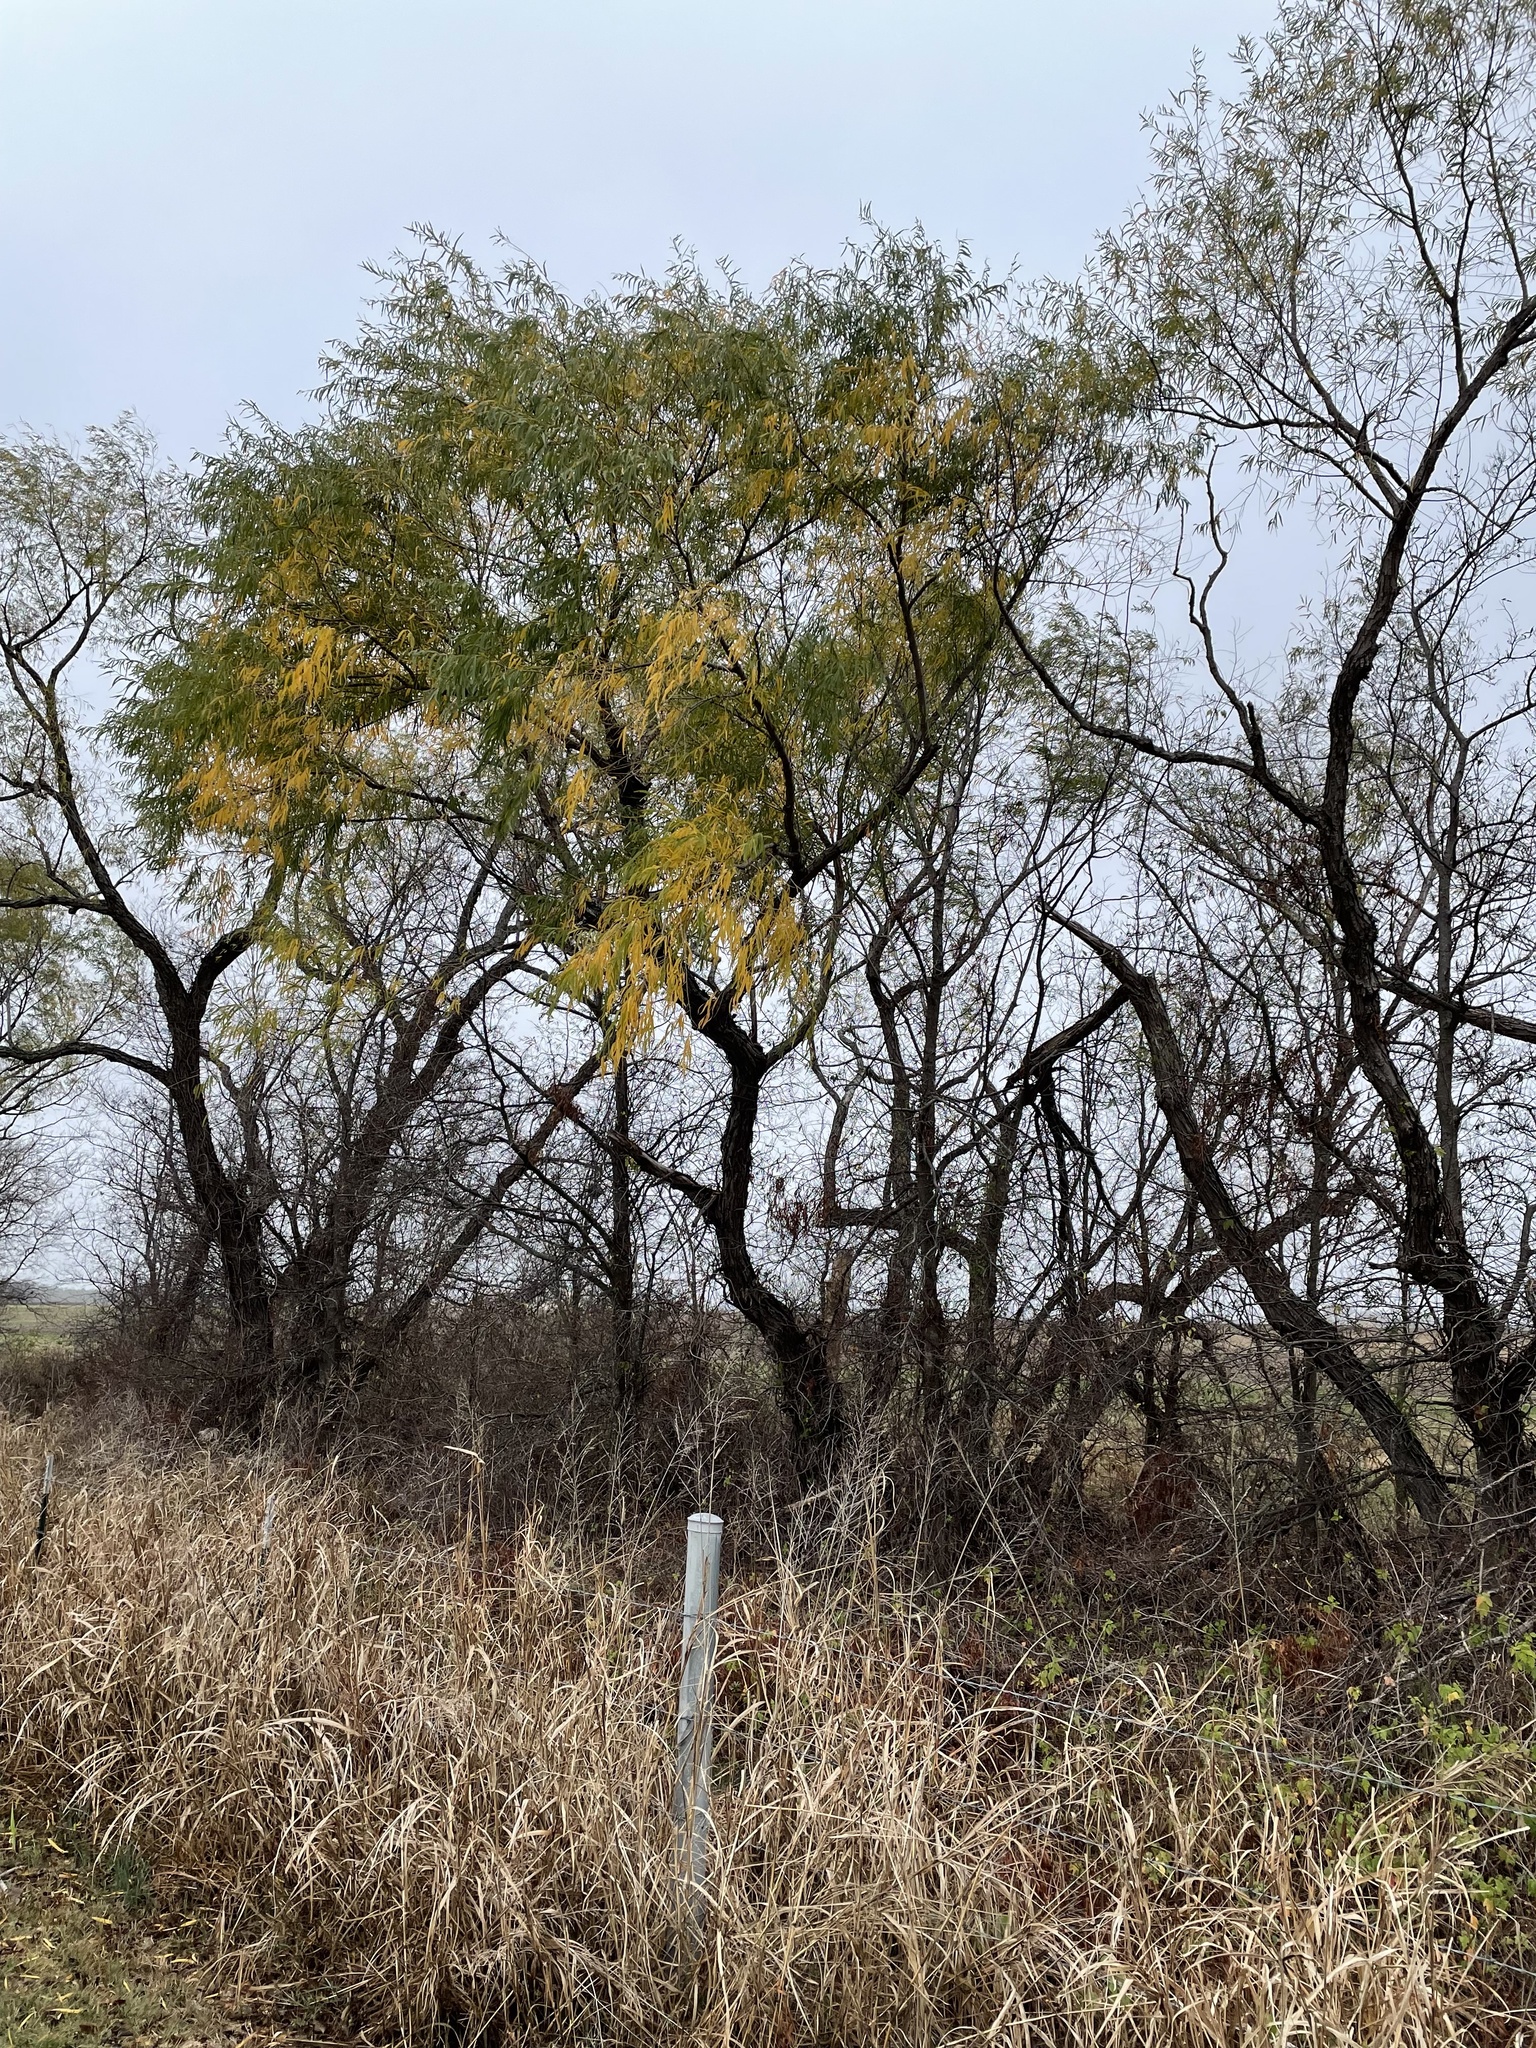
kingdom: Plantae
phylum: Tracheophyta
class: Magnoliopsida
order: Malpighiales
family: Salicaceae
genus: Salix
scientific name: Salix nigra
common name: Black willow
